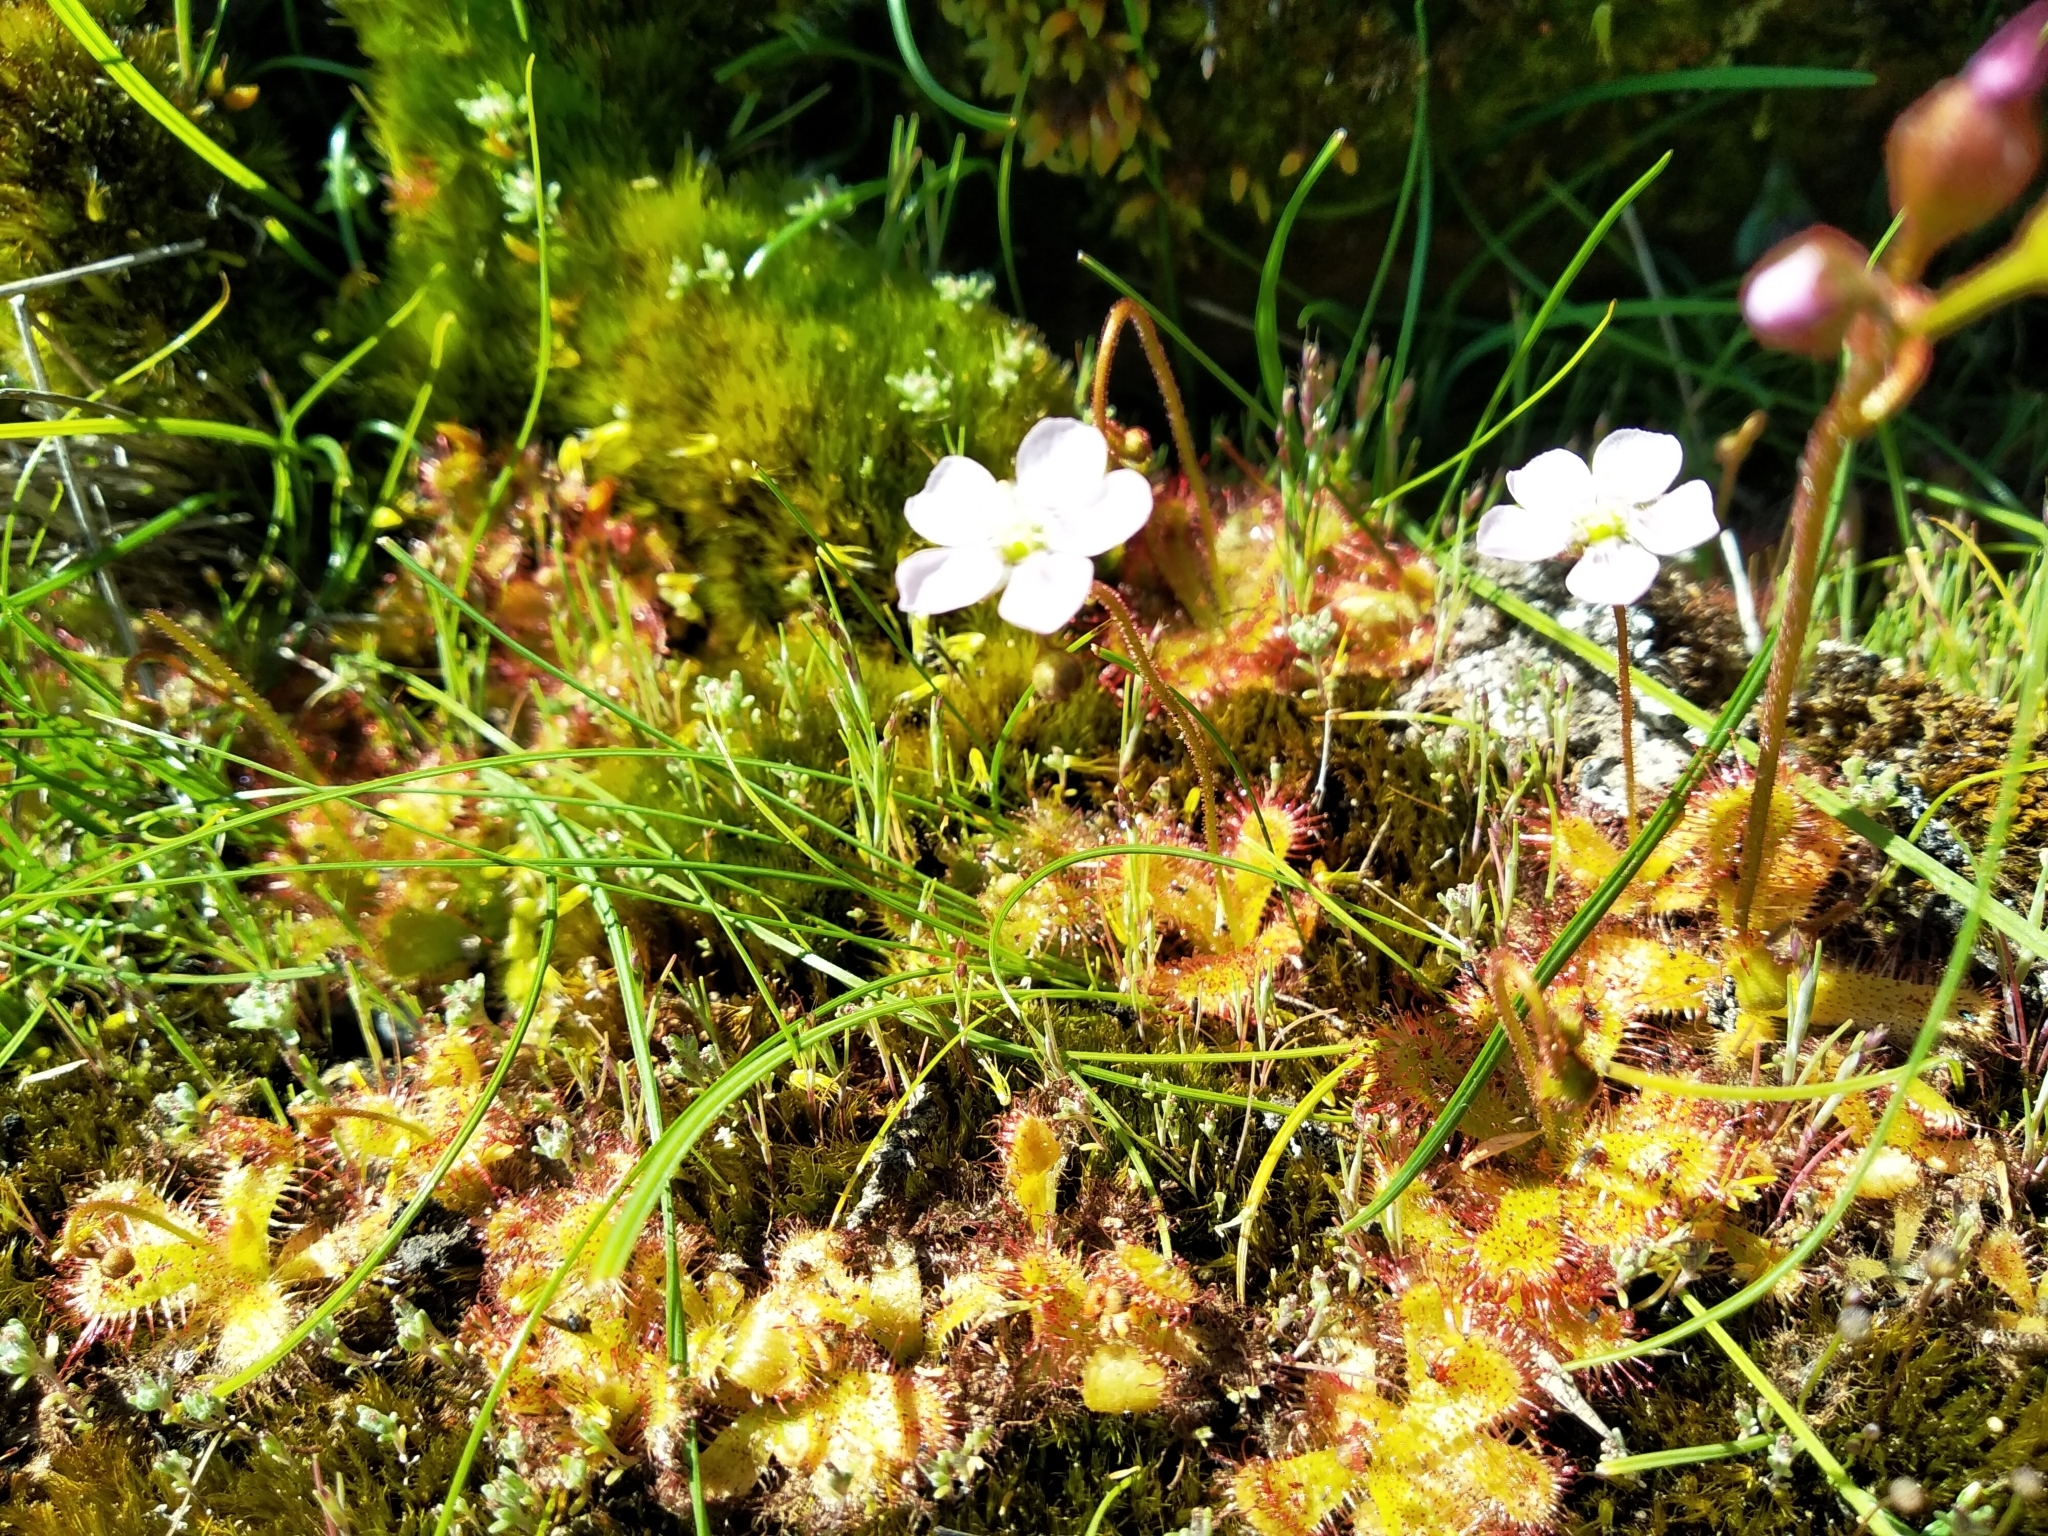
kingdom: Plantae
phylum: Tracheophyta
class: Magnoliopsida
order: Caryophyllales
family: Droseraceae
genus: Drosera
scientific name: Drosera trinervia
